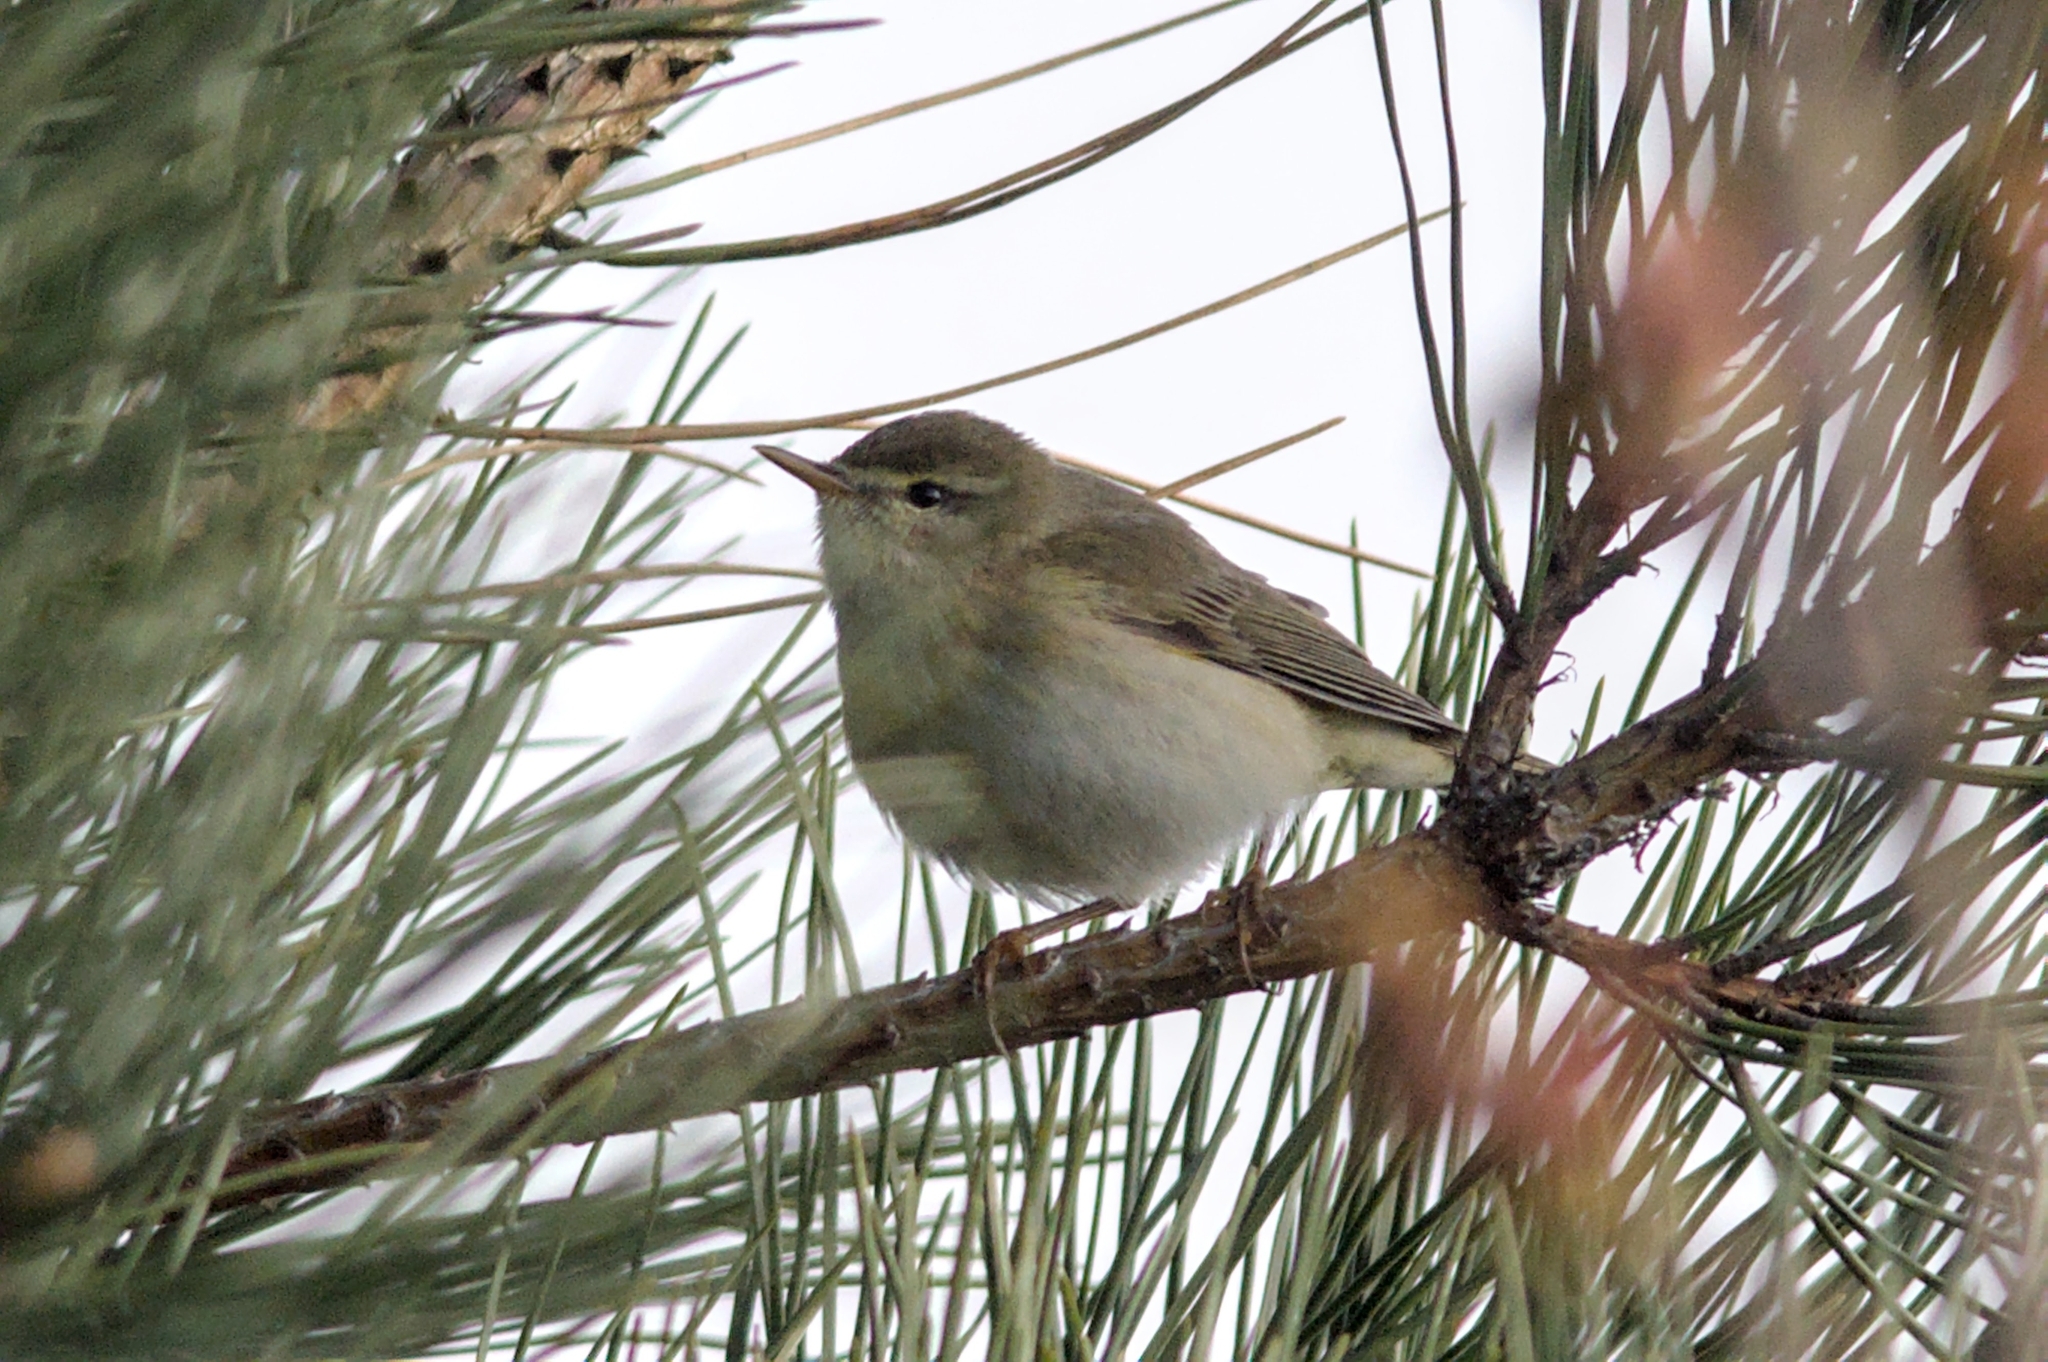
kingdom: Animalia
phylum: Chordata
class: Aves
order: Passeriformes
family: Phylloscopidae
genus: Phylloscopus
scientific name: Phylloscopus trochilus
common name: Willow warbler
